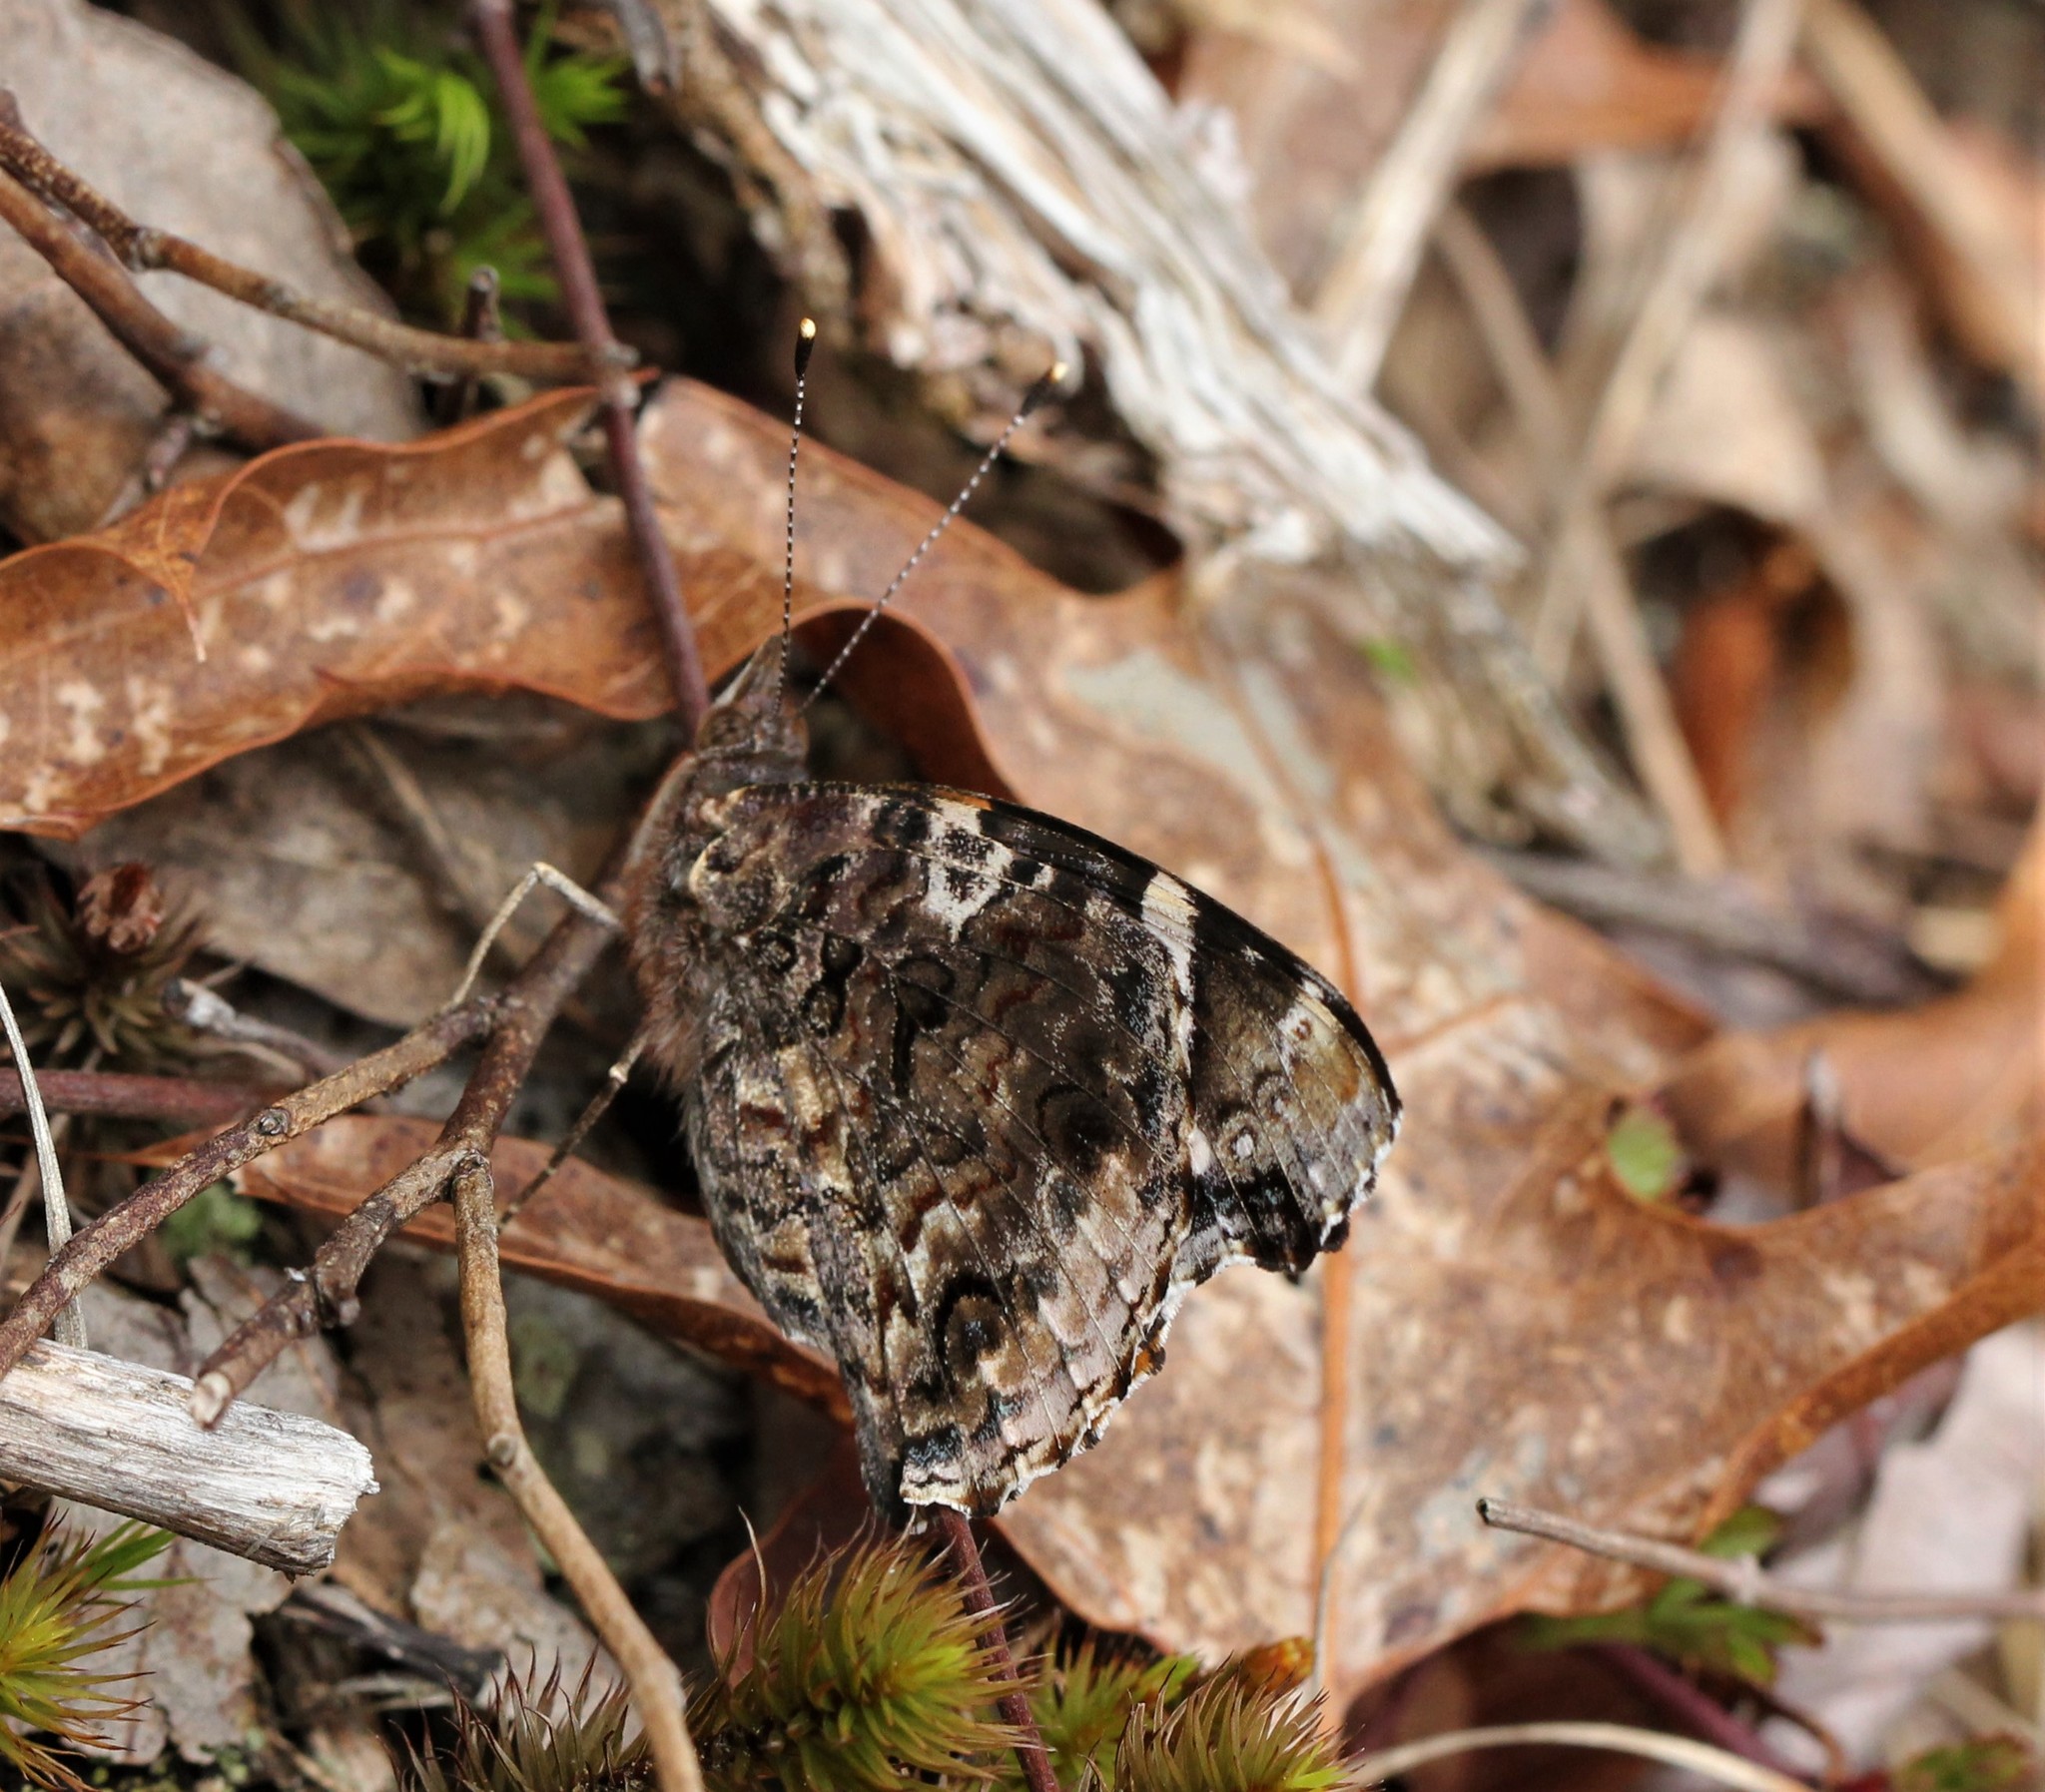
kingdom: Animalia
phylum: Arthropoda
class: Insecta
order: Lepidoptera
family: Nymphalidae
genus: Vanessa
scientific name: Vanessa atalanta
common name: Red admiral
